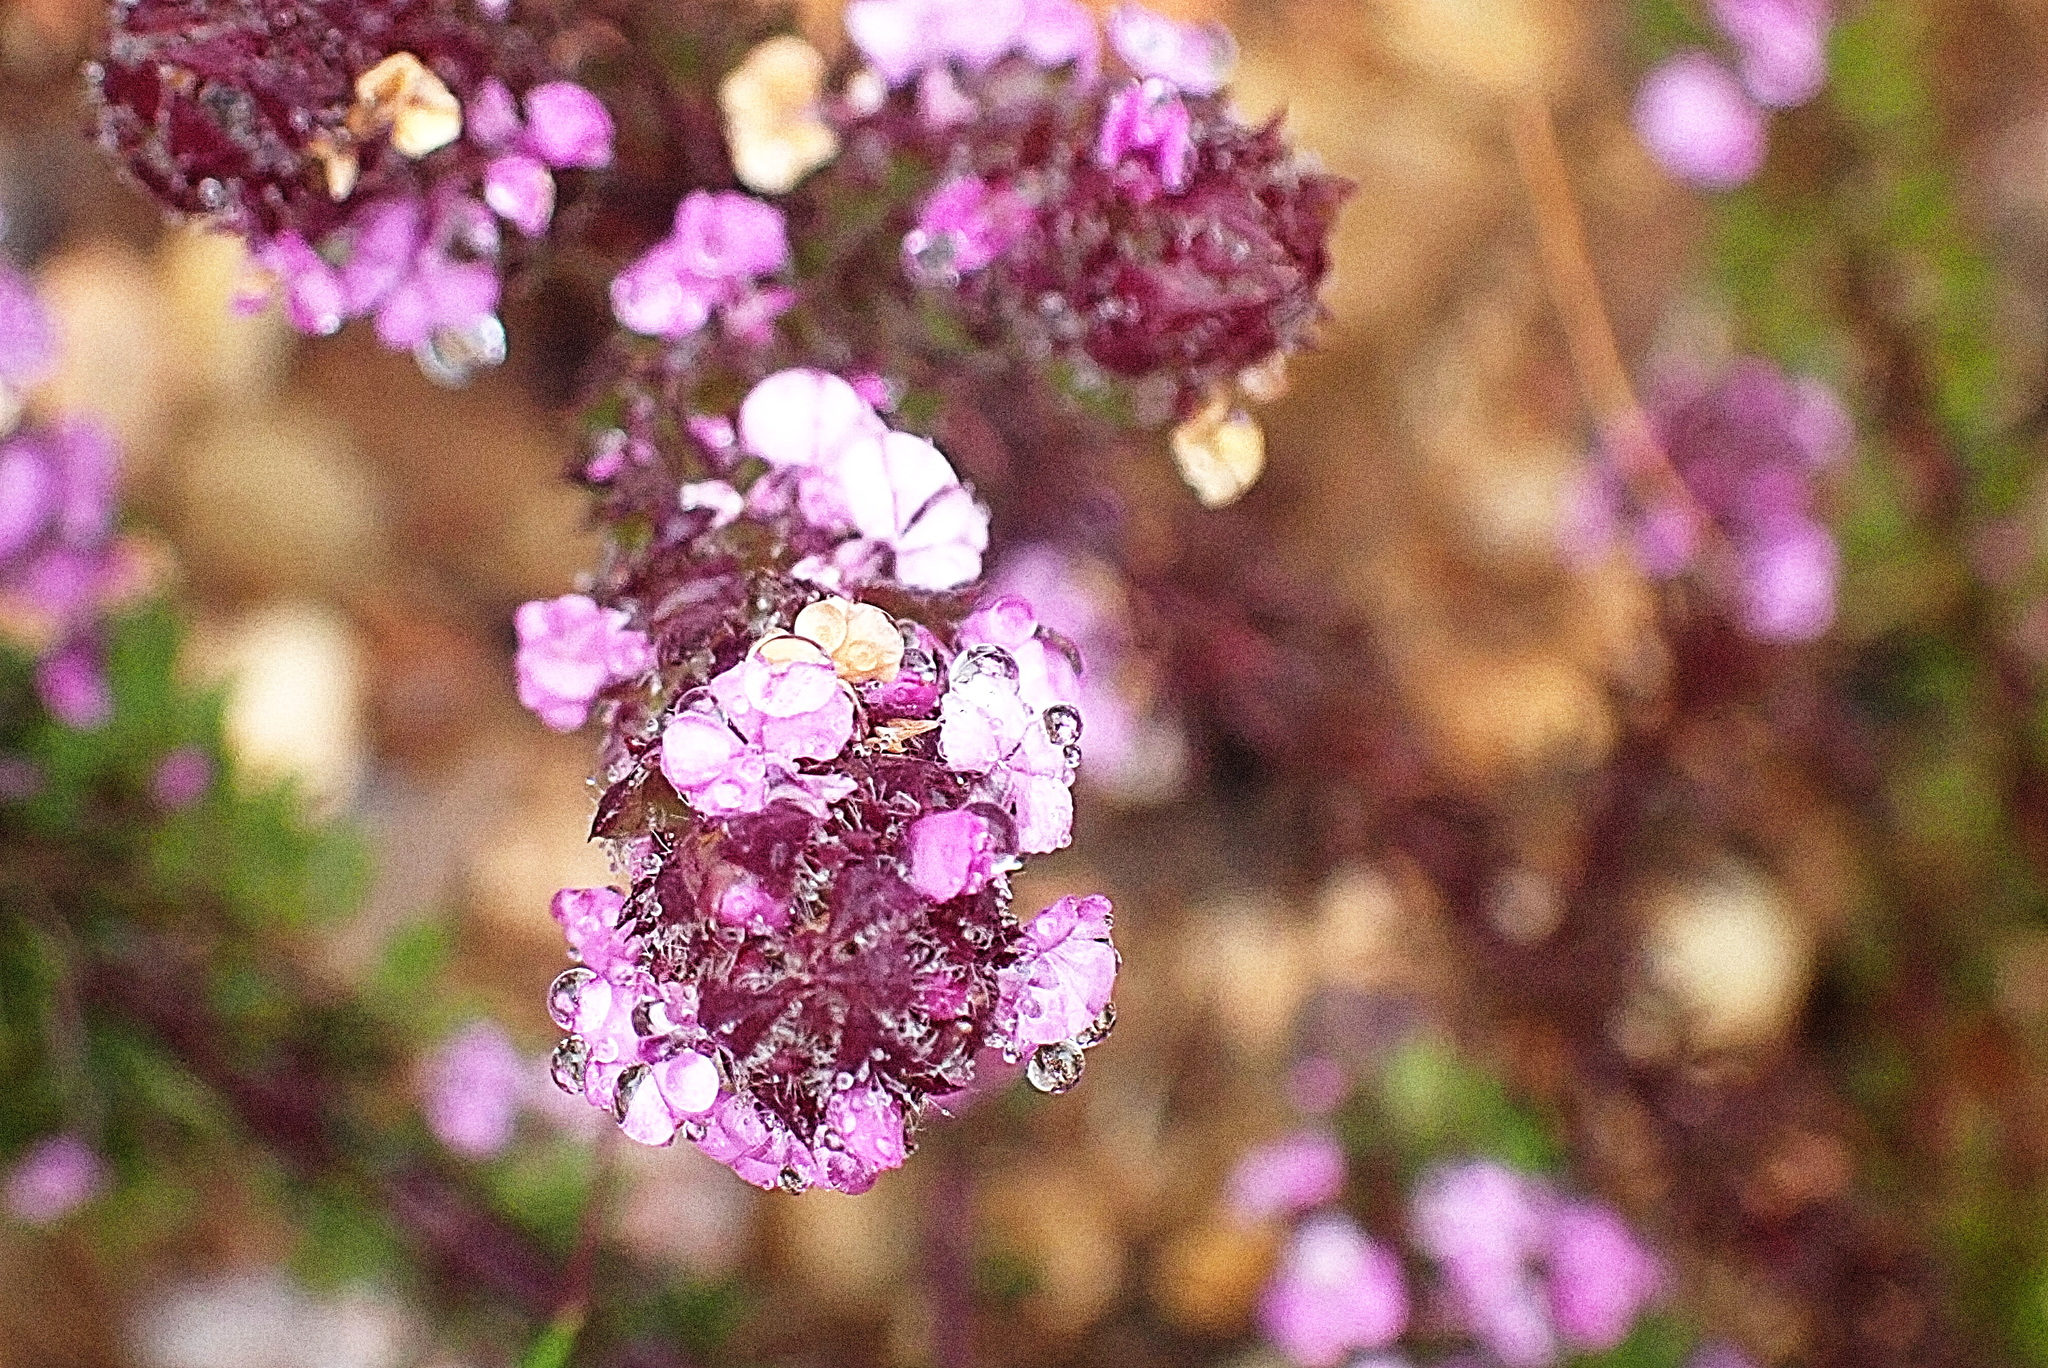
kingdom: Plantae
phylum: Tracheophyta
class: Magnoliopsida
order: Fabales
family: Polygalaceae
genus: Muraltia
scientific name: Muraltia alopecuroides
